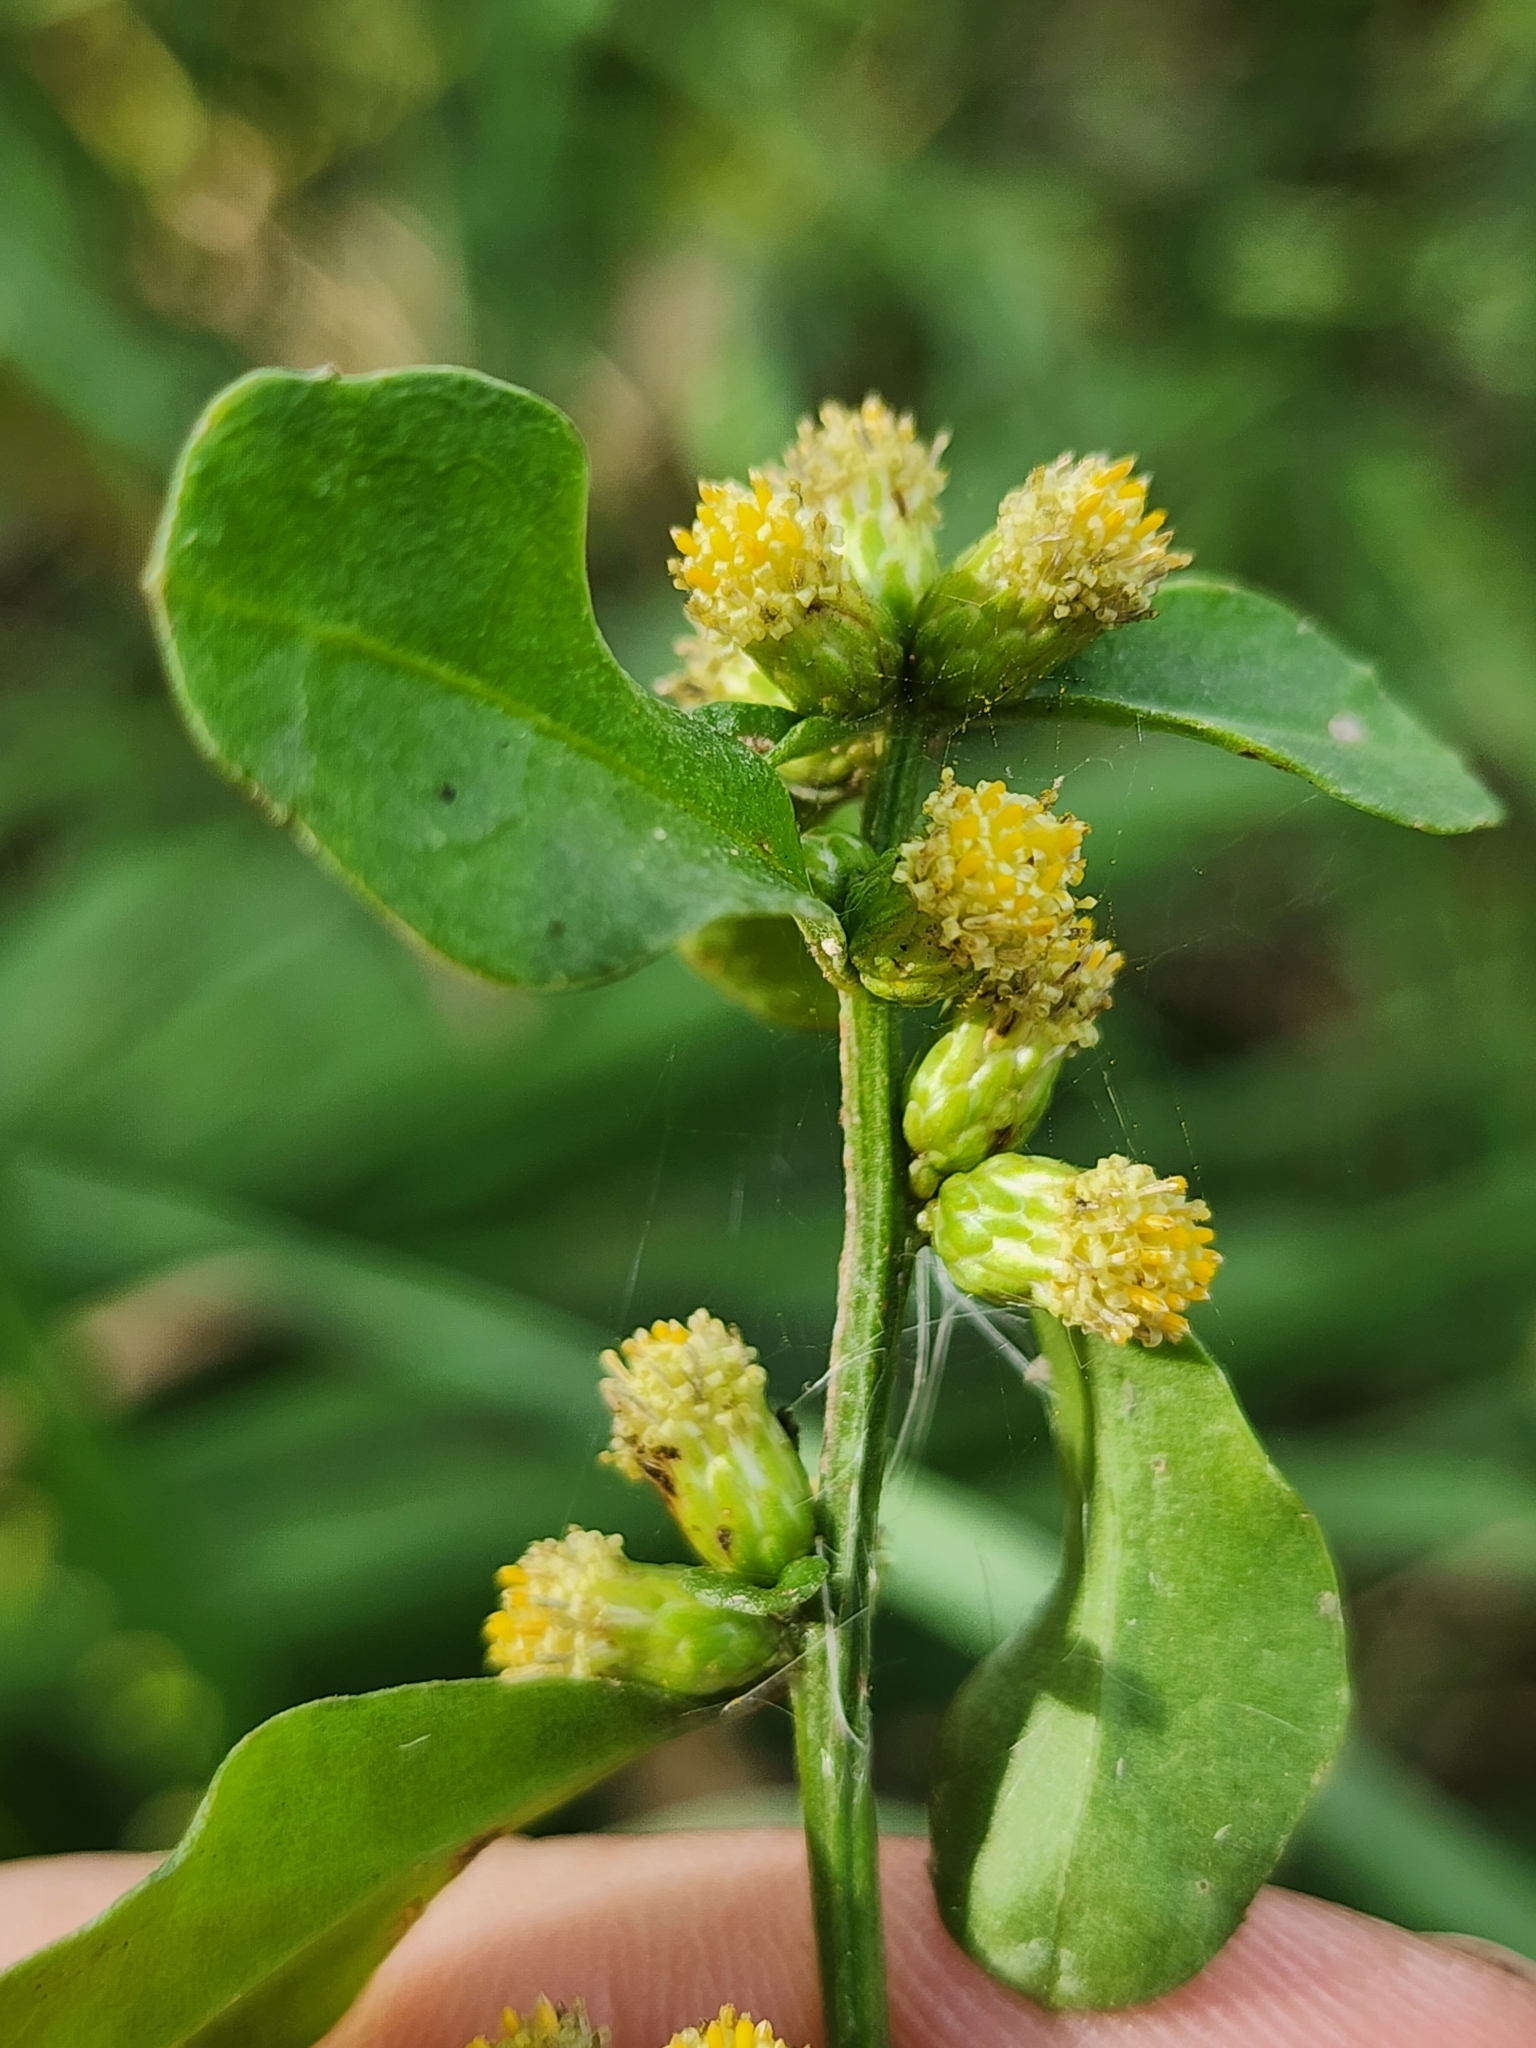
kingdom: Plantae
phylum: Tracheophyta
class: Magnoliopsida
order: Asterales
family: Asteraceae
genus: Baccharis
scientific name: Baccharis glomeruliflora
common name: Silverling groundsel bush
